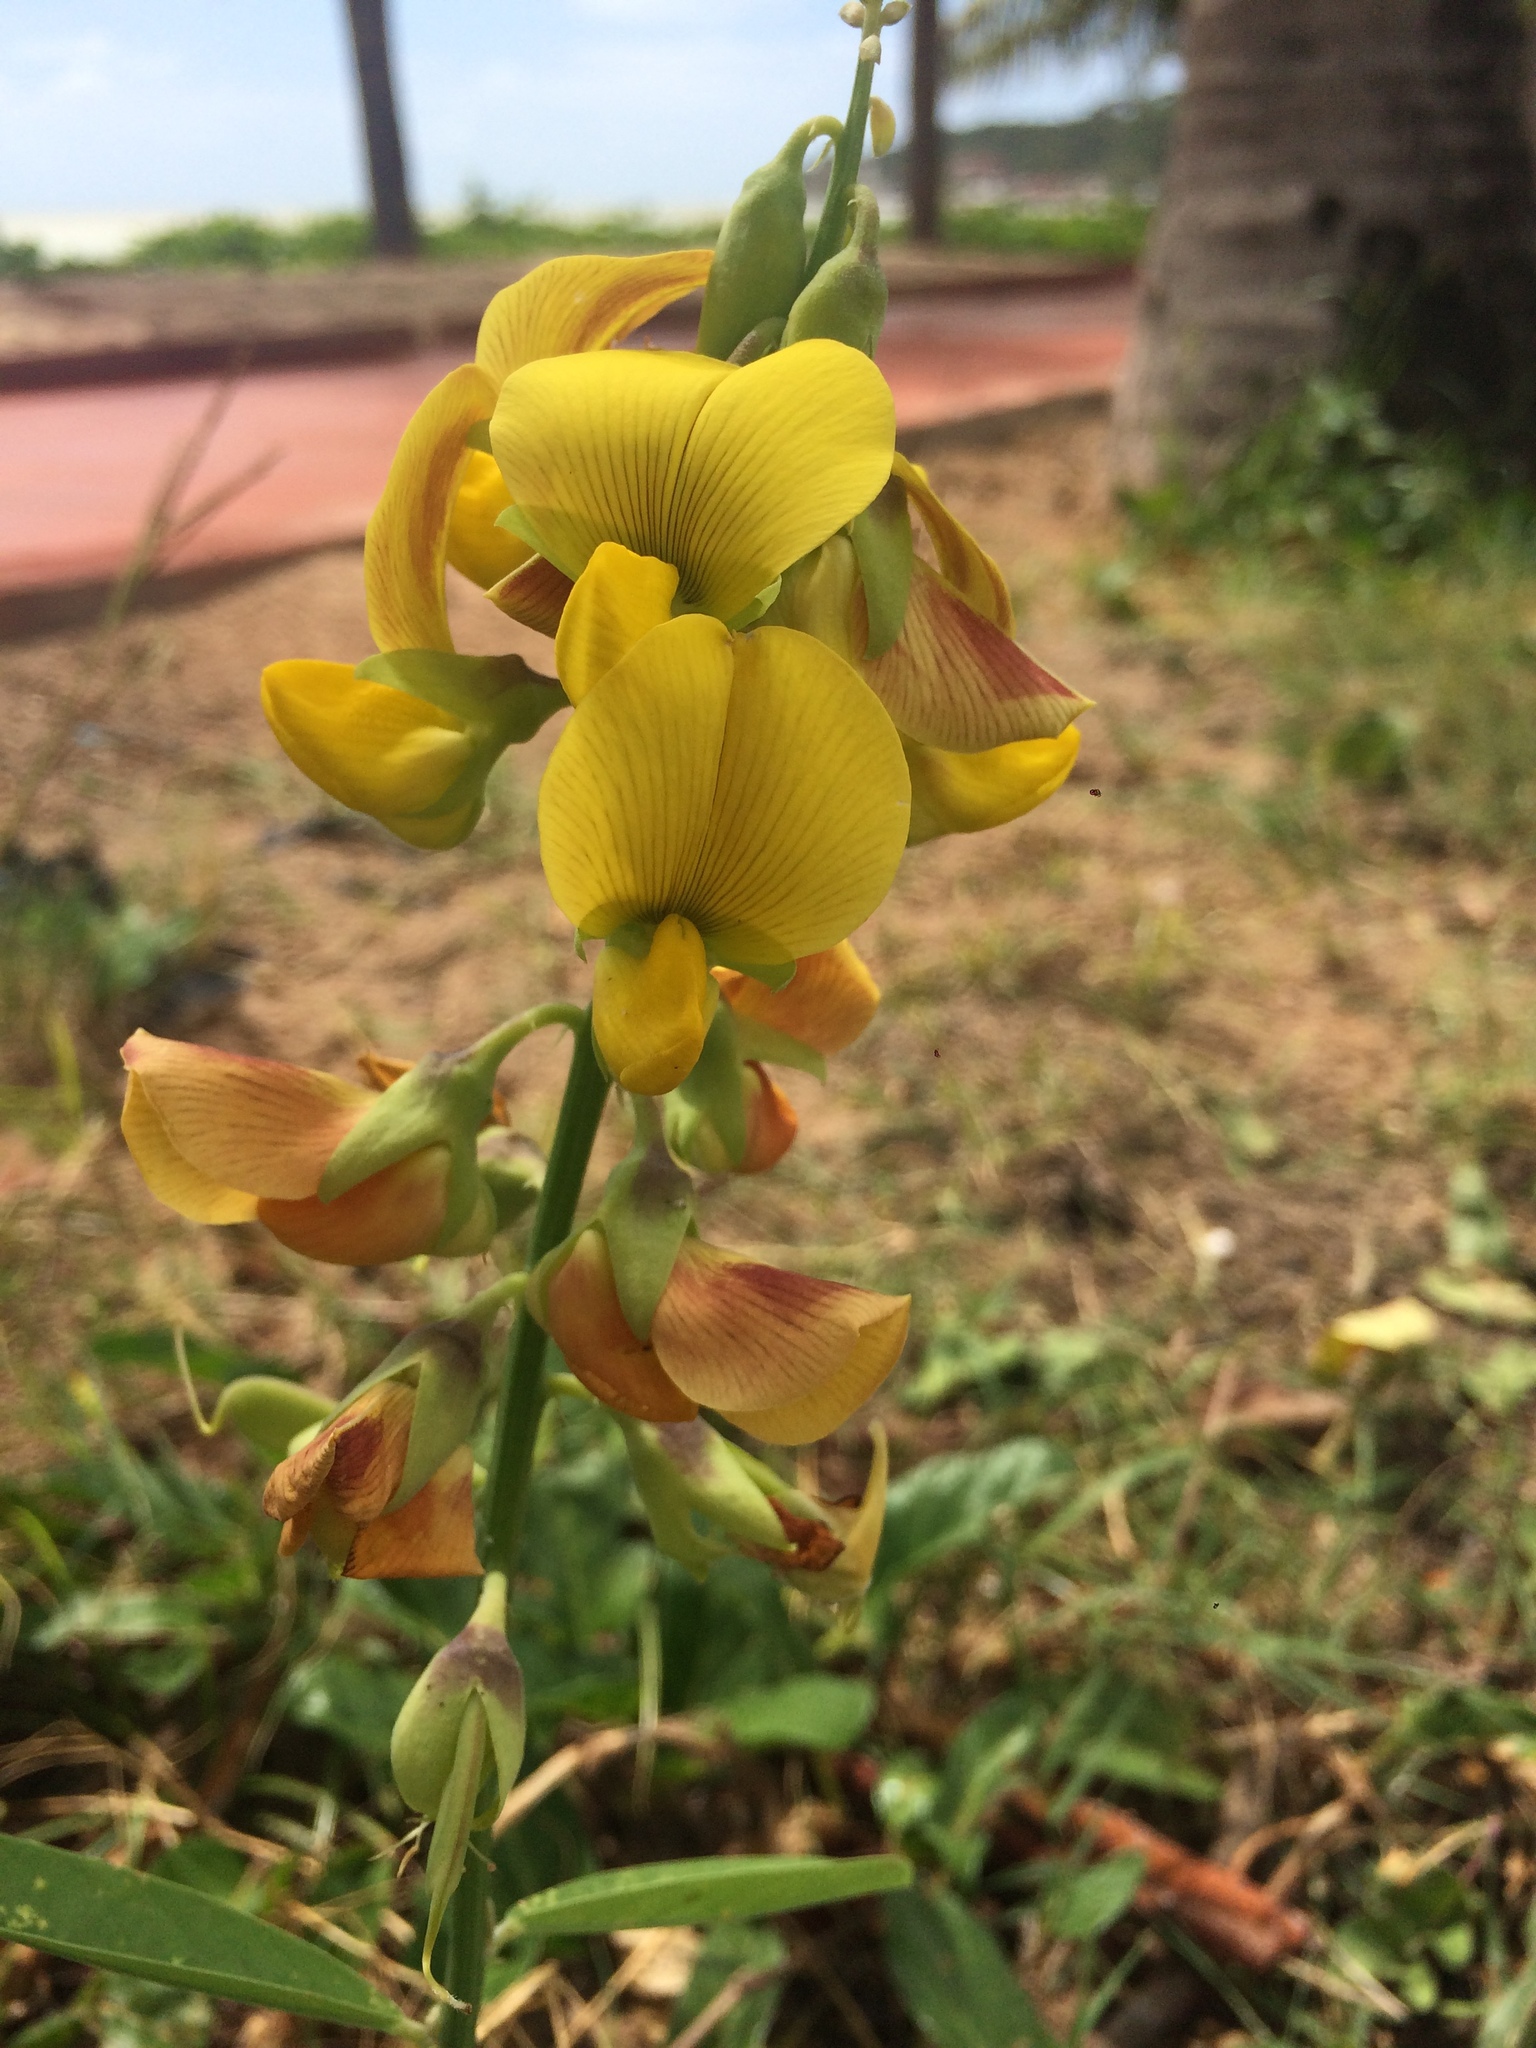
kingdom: Plantae
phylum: Tracheophyta
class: Magnoliopsida
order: Fabales
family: Fabaceae
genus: Crotalaria
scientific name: Crotalaria retusa
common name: Rattleweed
